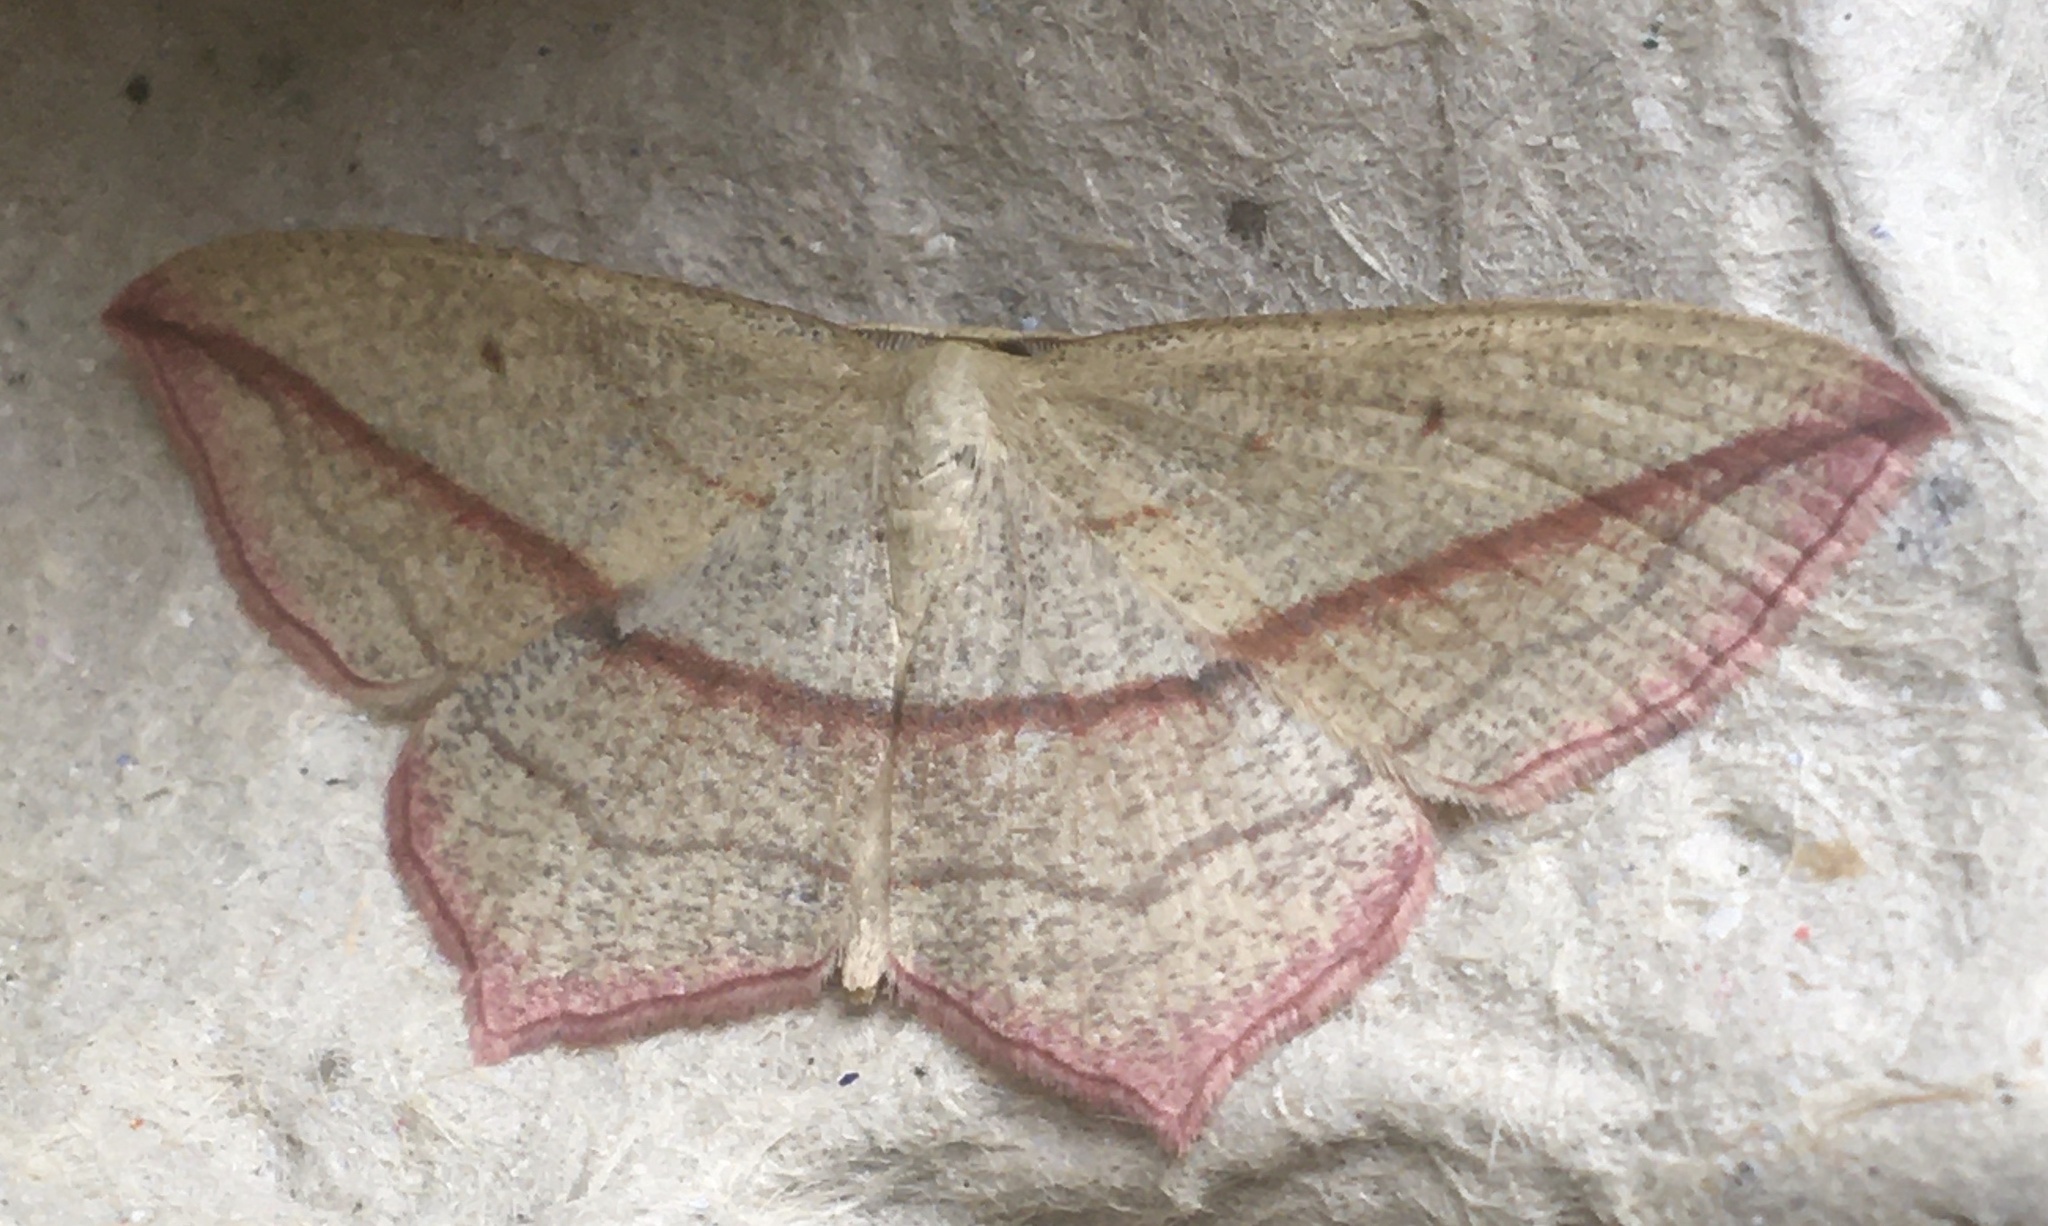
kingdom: Animalia
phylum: Arthropoda
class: Insecta
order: Lepidoptera
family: Geometridae
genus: Timandra
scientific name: Timandra comae
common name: Blood-vein
